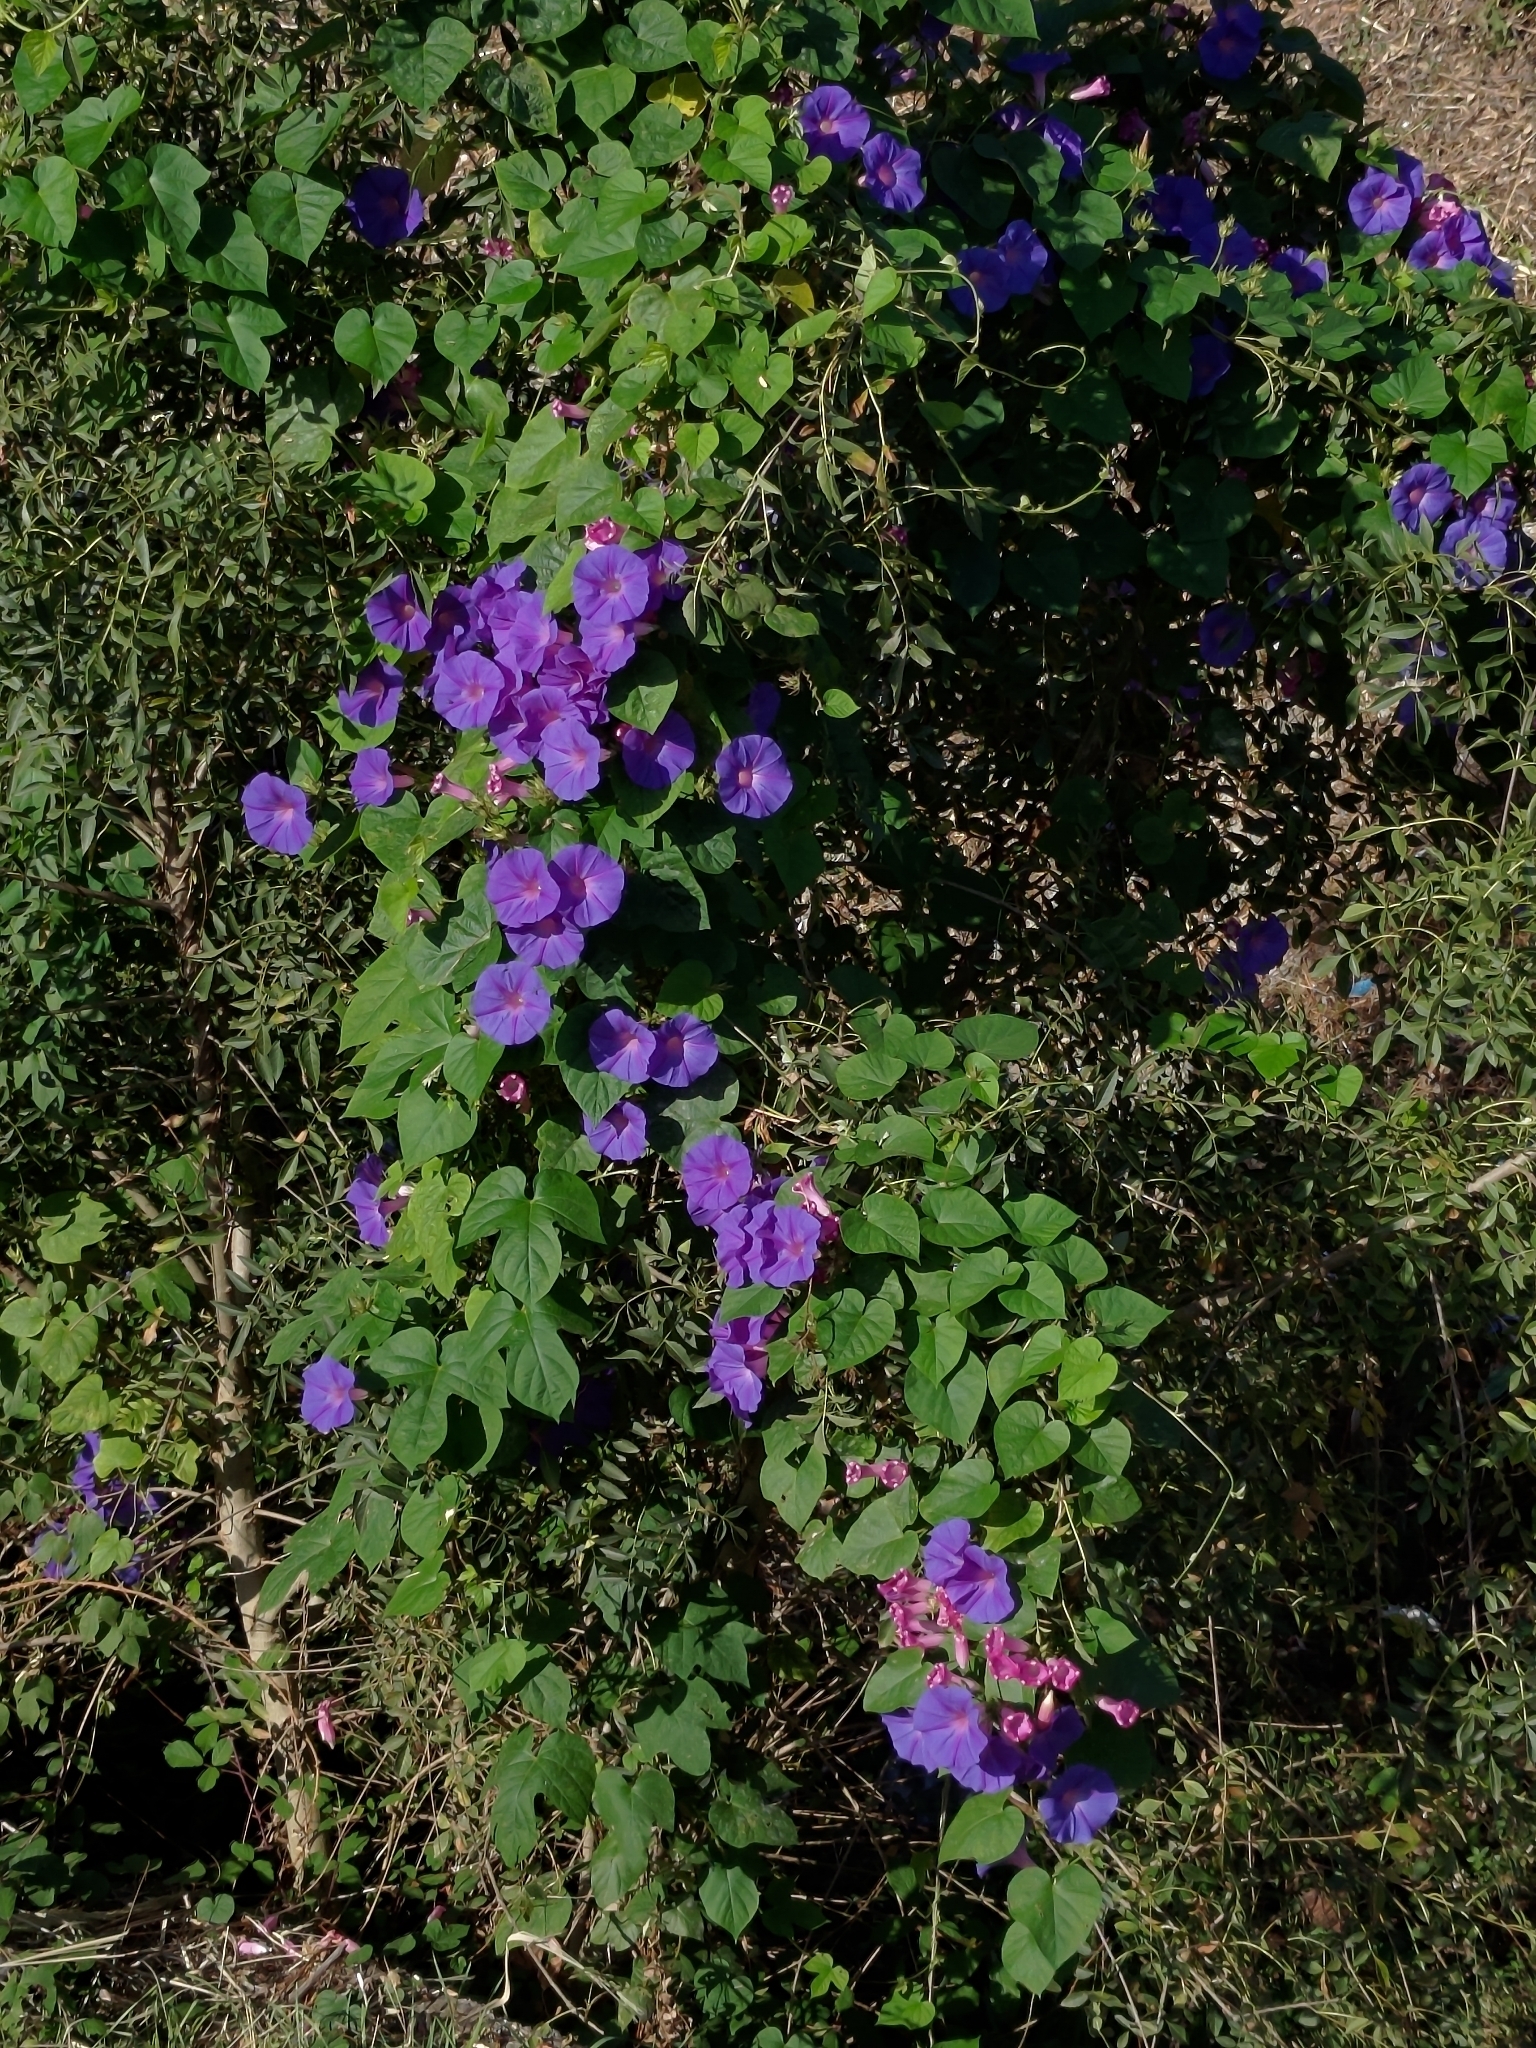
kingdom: Plantae
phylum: Tracheophyta
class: Magnoliopsida
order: Solanales
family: Convolvulaceae
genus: Ipomoea
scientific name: Ipomoea indica
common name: Blue dawnflower
